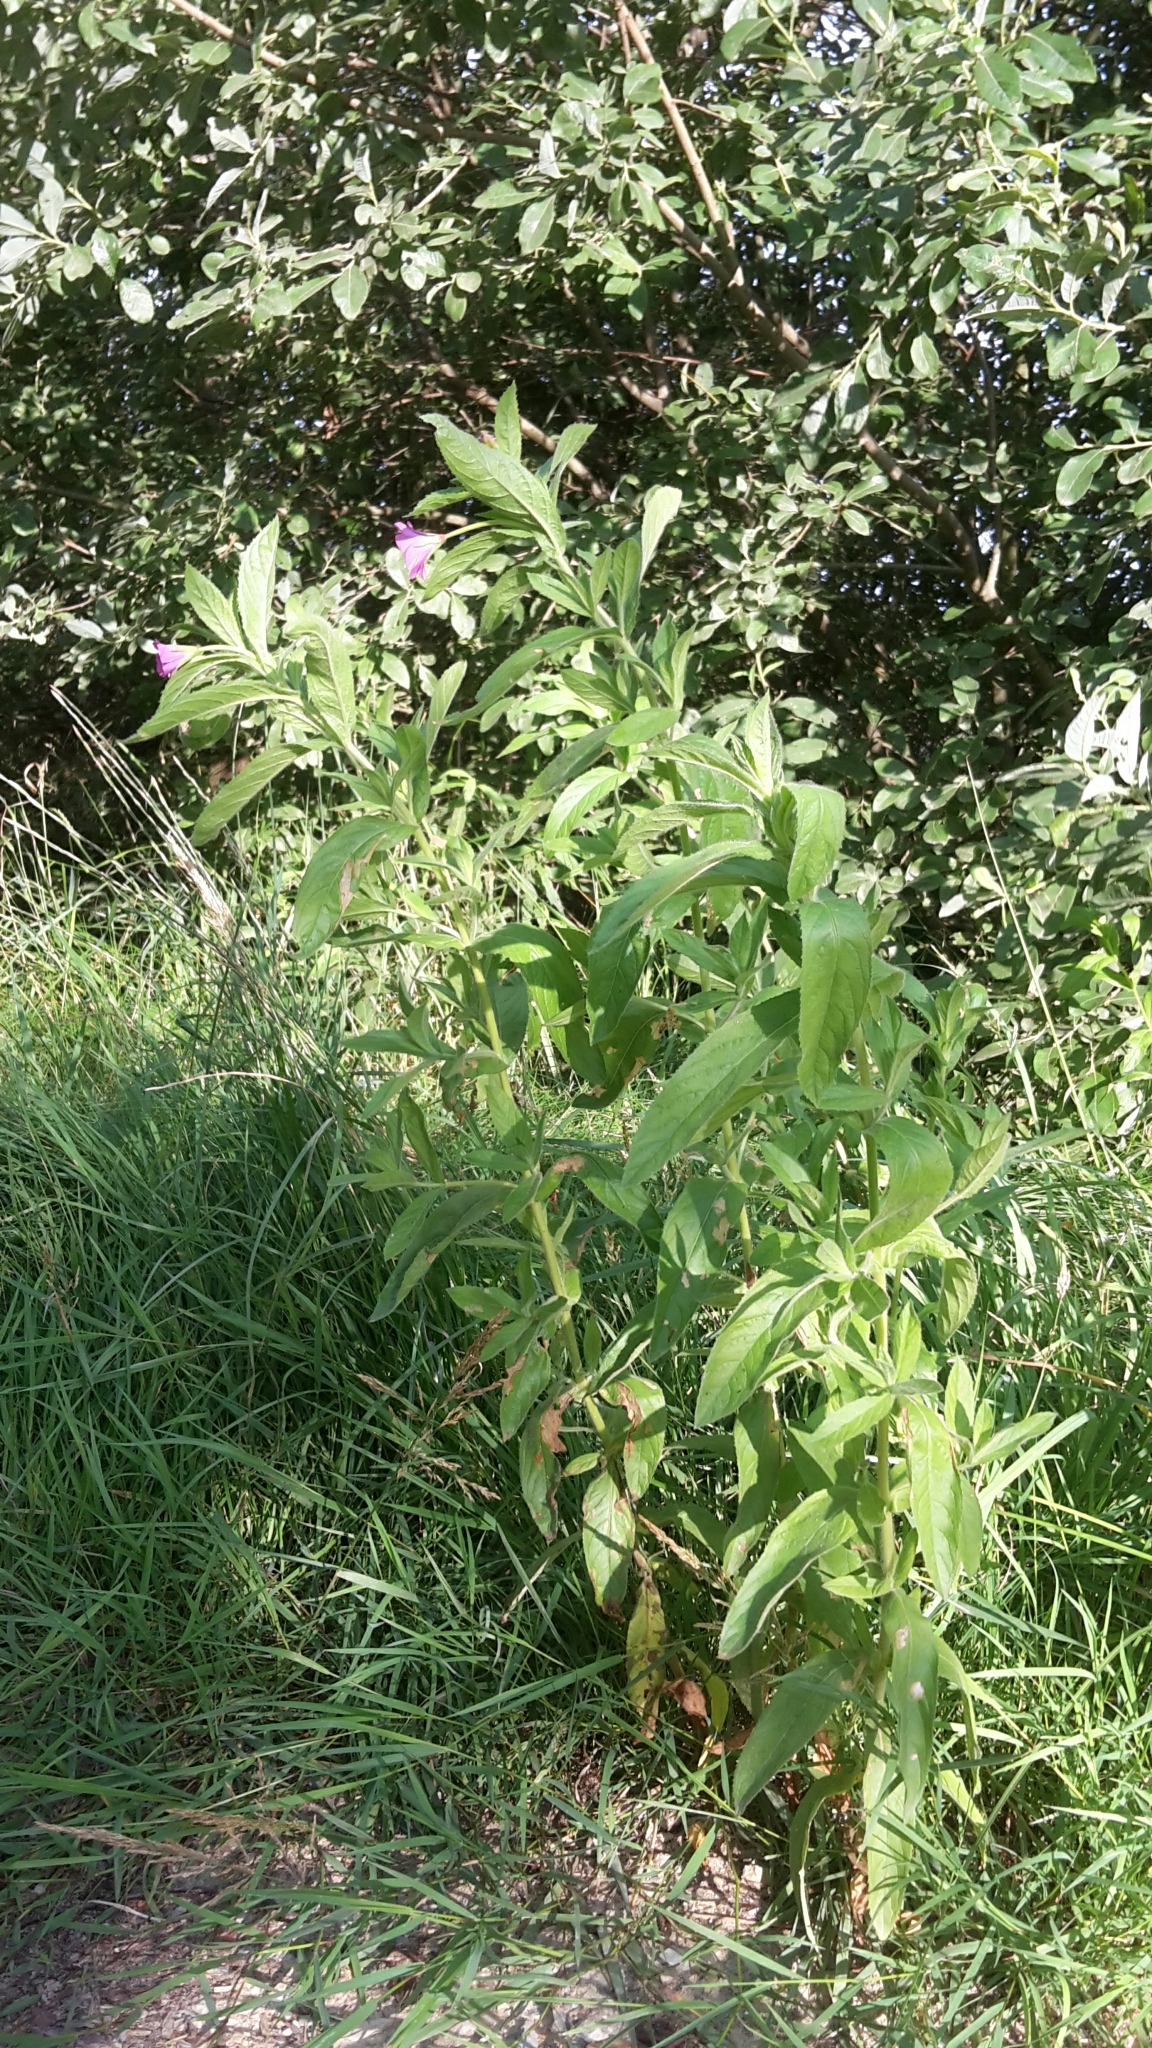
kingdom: Plantae
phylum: Tracheophyta
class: Magnoliopsida
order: Myrtales
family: Onagraceae
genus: Epilobium
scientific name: Epilobium hirsutum
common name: Great willowherb
